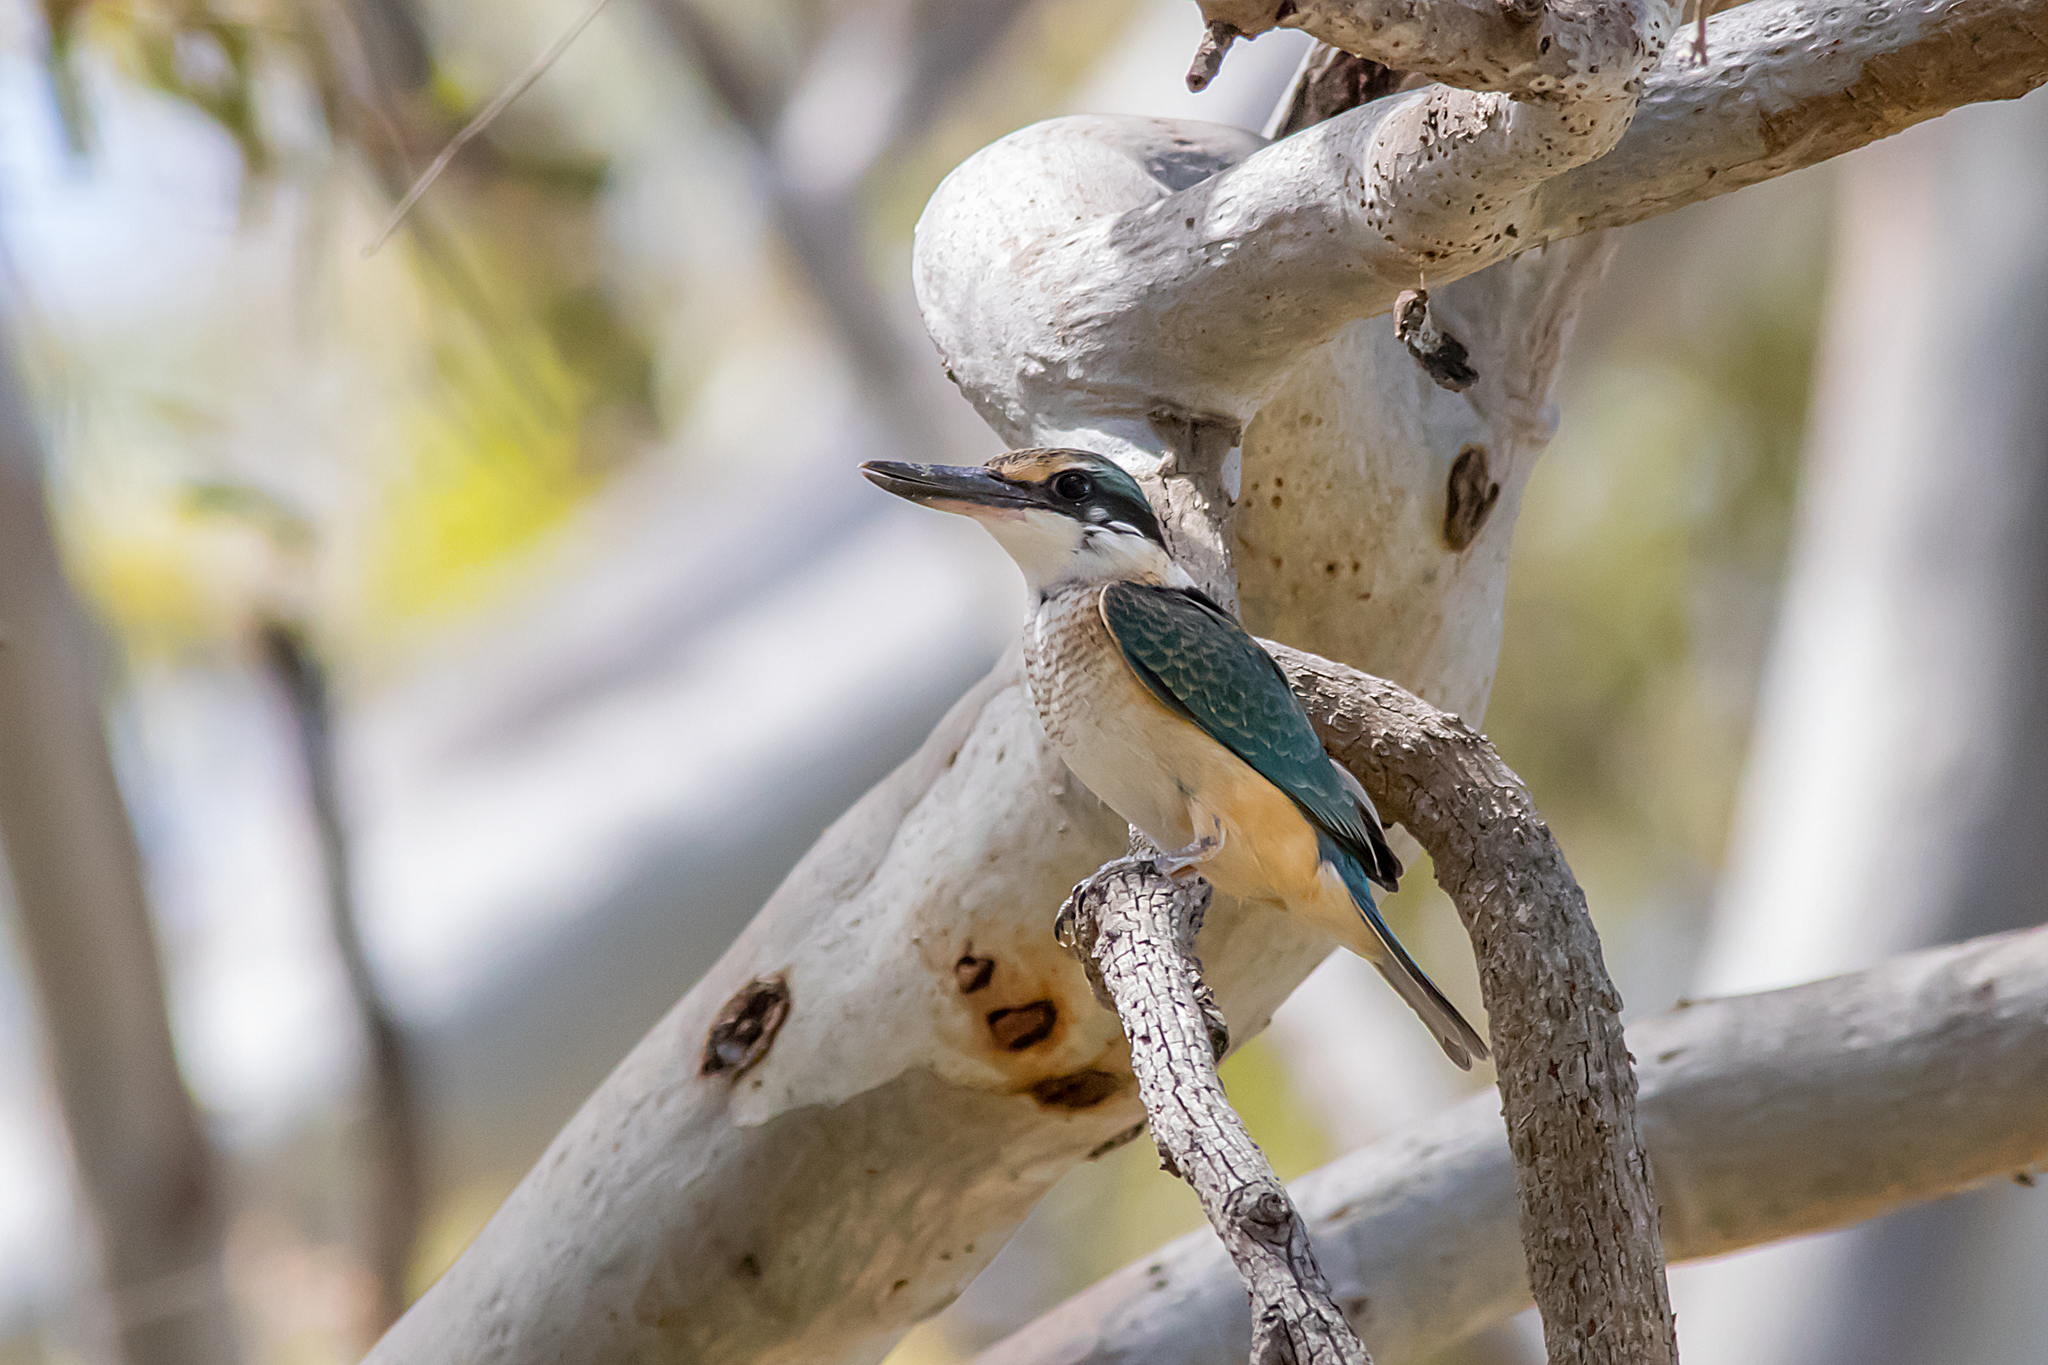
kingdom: Animalia
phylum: Chordata
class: Aves
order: Coraciiformes
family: Alcedinidae
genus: Todiramphus
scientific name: Todiramphus sanctus
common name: Sacred kingfisher
